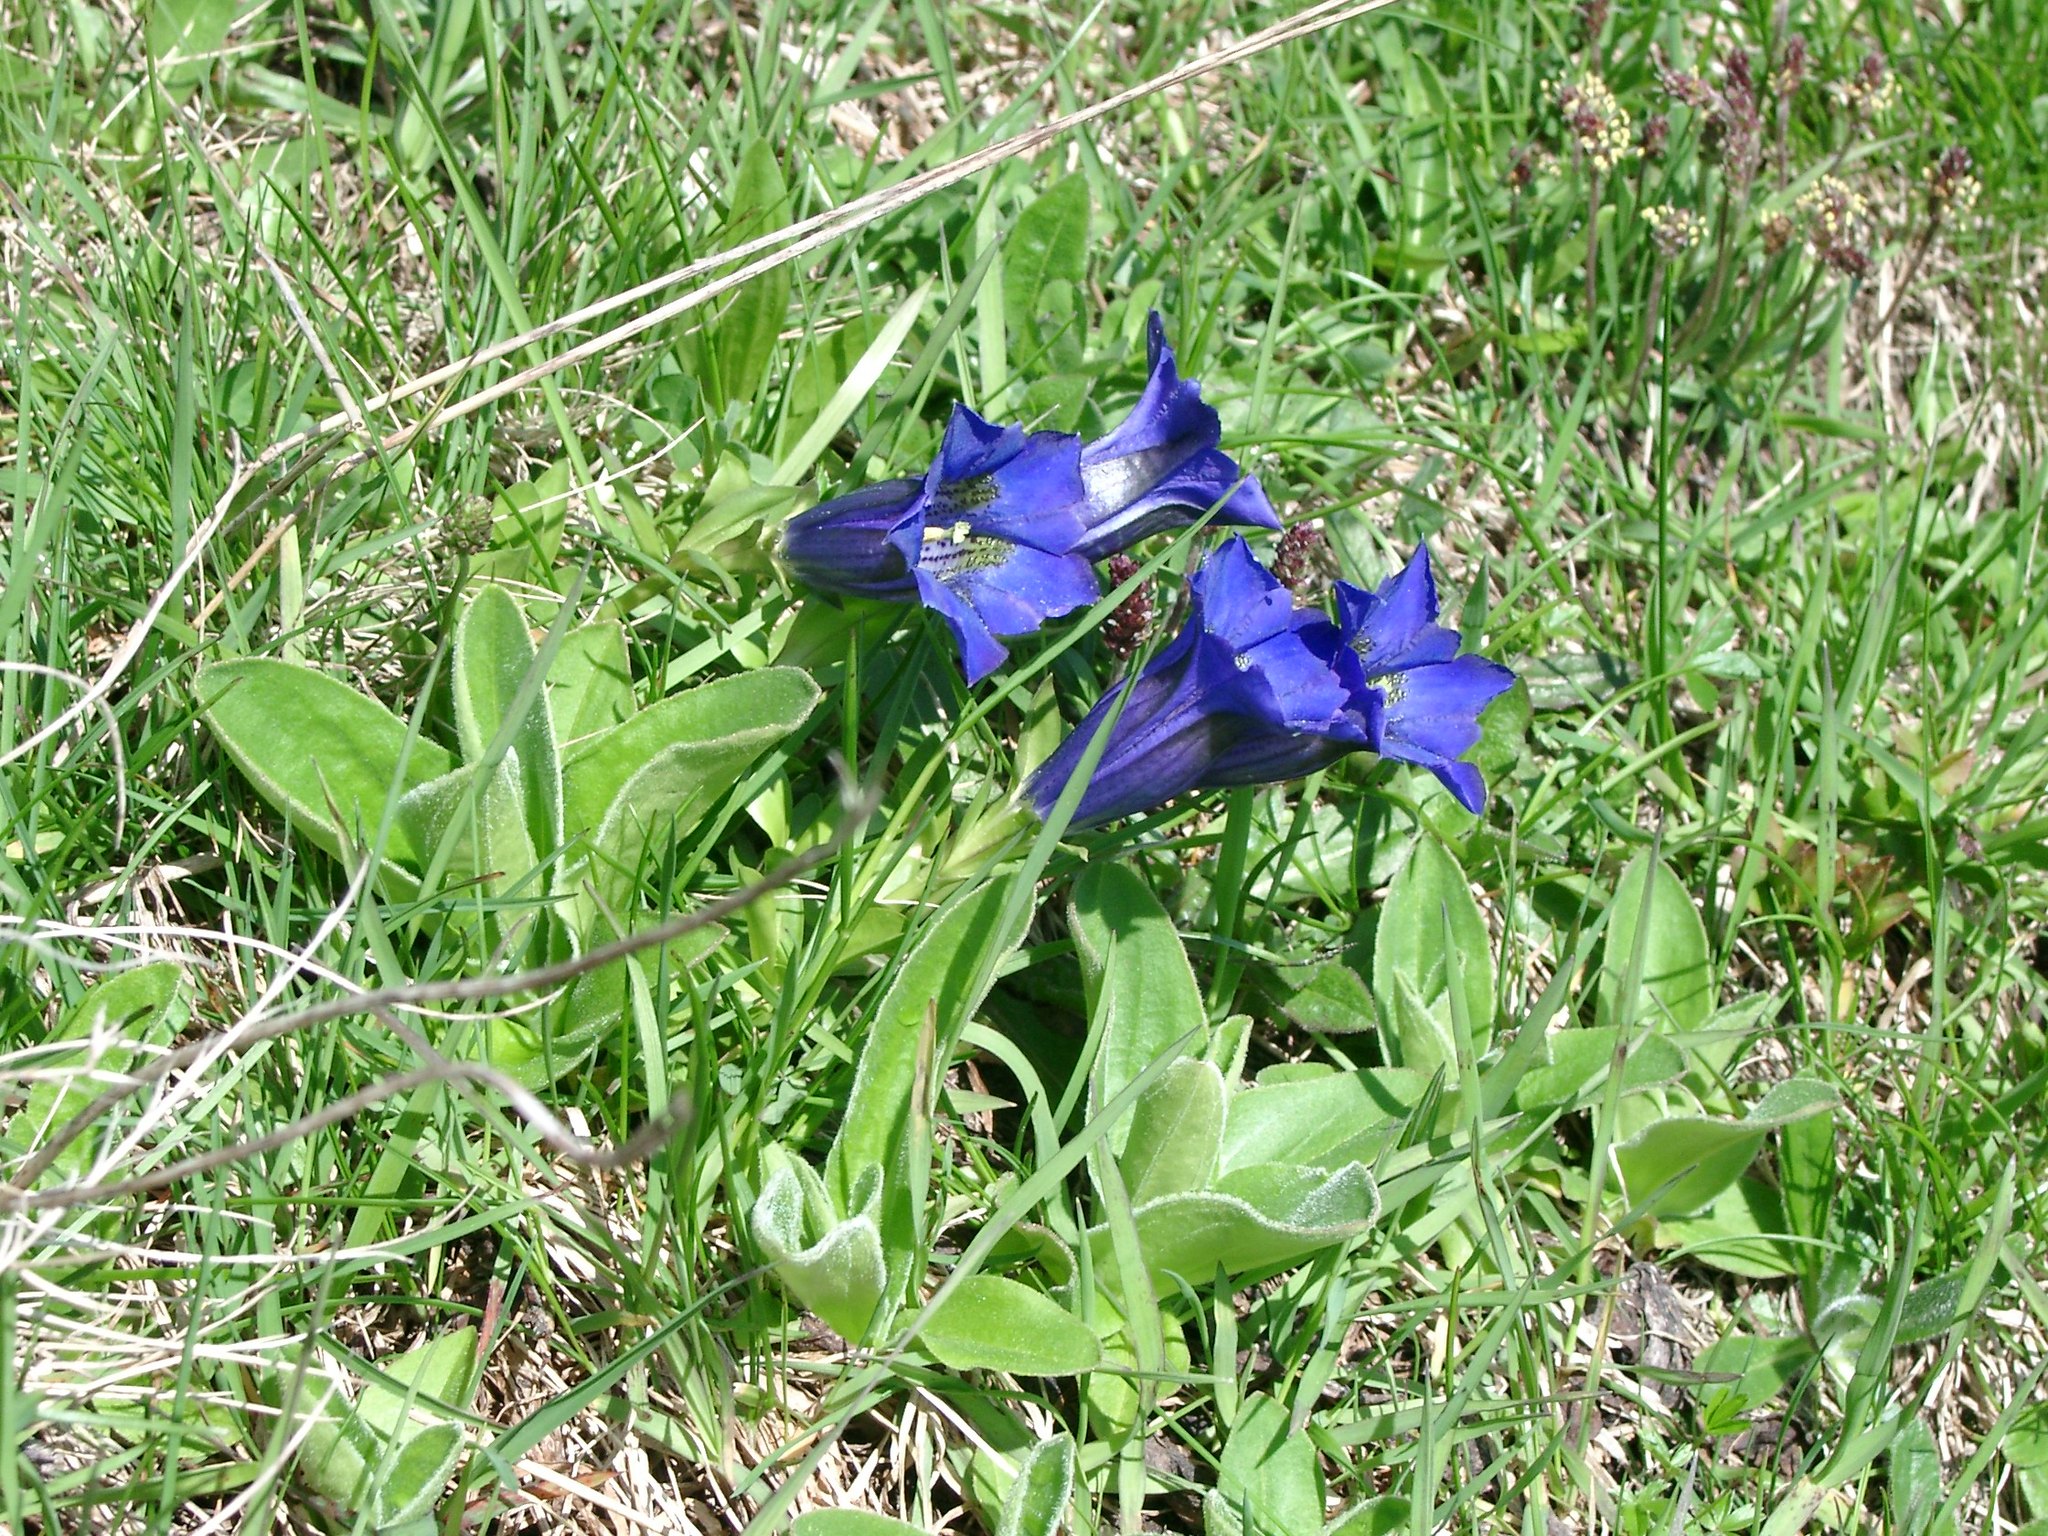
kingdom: Plantae
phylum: Tracheophyta
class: Magnoliopsida
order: Gentianales
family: Gentianaceae
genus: Gentiana
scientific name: Gentiana acaulis
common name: Trumpet gentian
